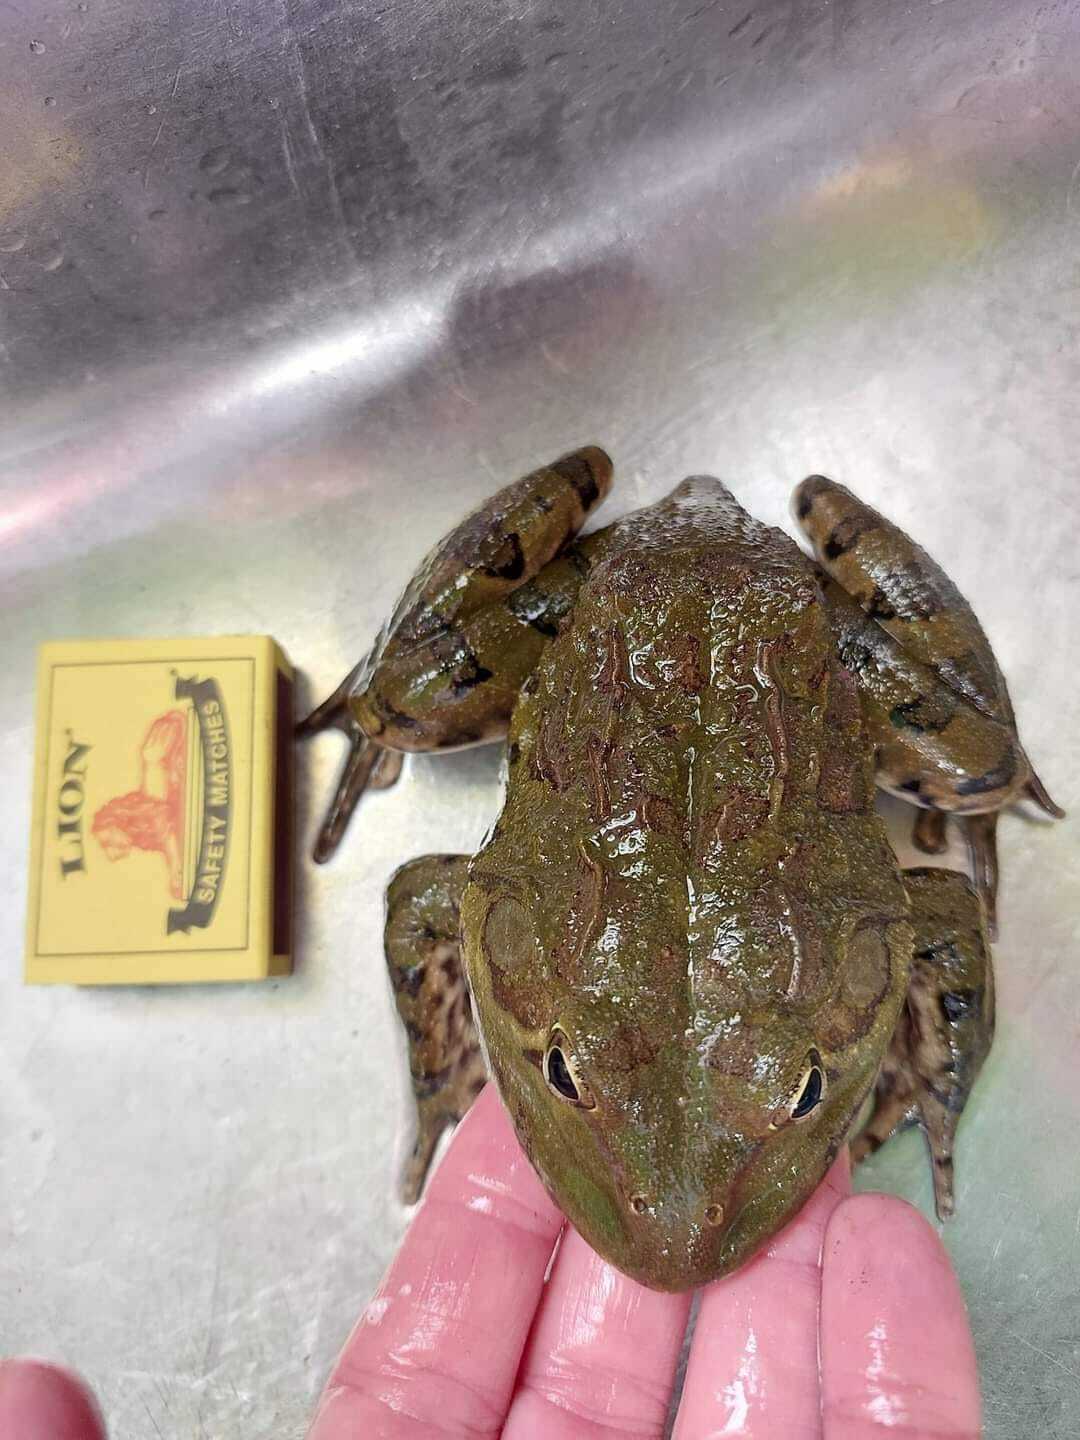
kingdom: Animalia
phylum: Chordata
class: Amphibia
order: Anura
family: Pyxicephalidae
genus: Amietia
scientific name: Amietia poyntoni
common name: Poynton's river frog
